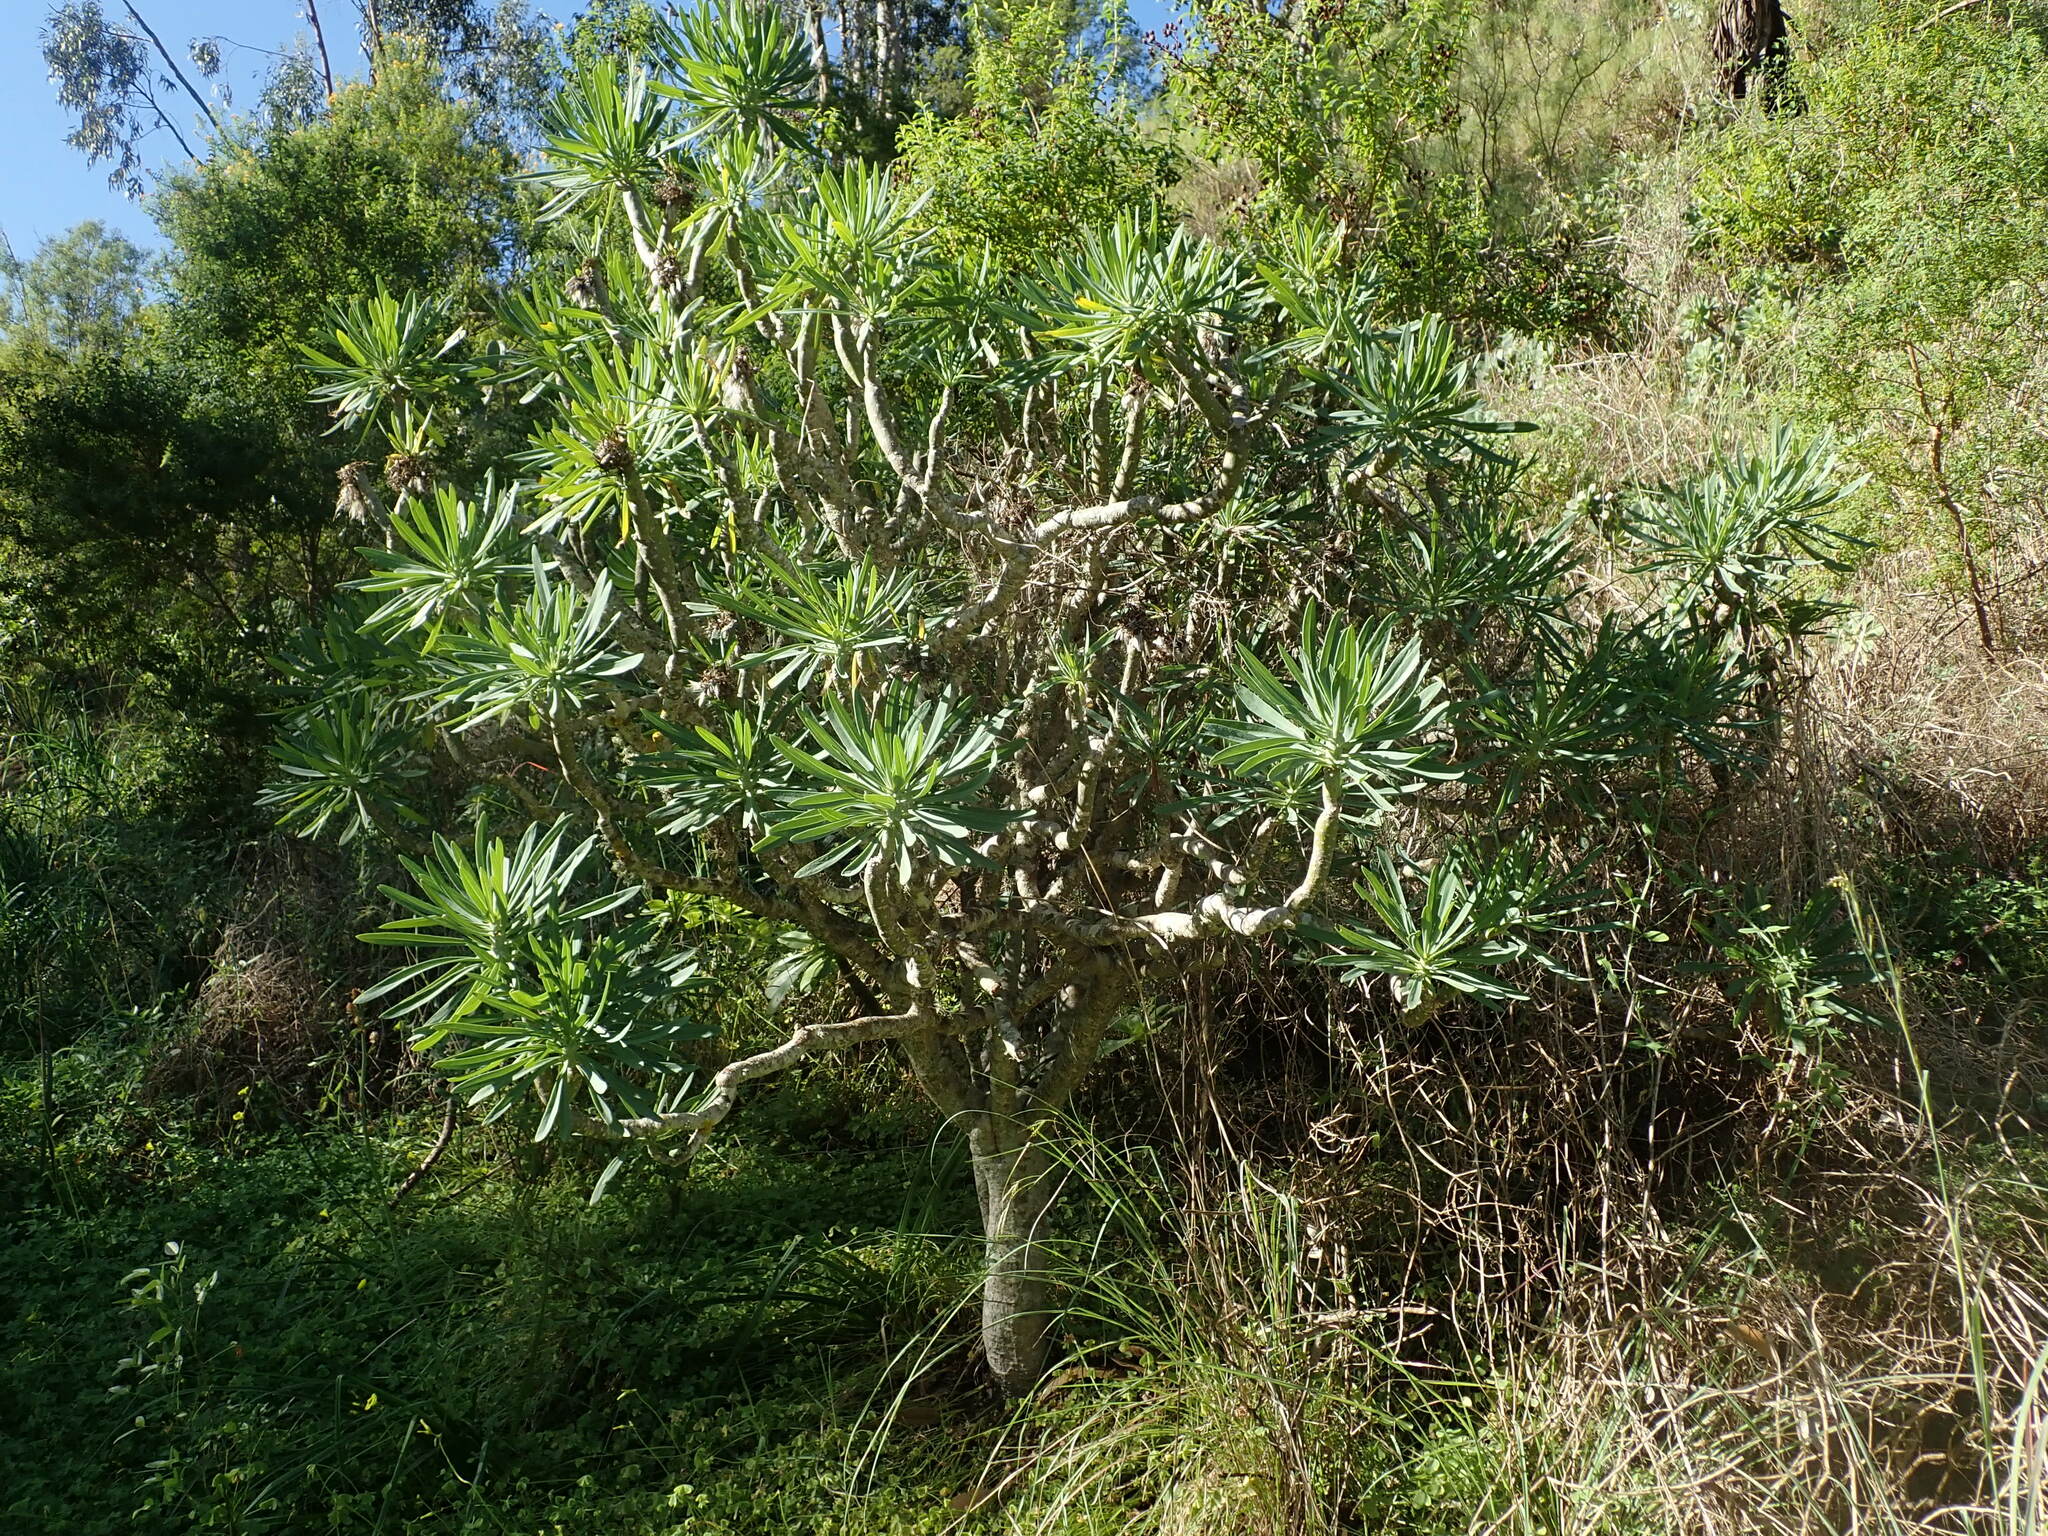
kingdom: Plantae
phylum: Tracheophyta
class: Magnoliopsida
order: Asterales
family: Asteraceae
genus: Kleinia
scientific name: Kleinia neriifolia
